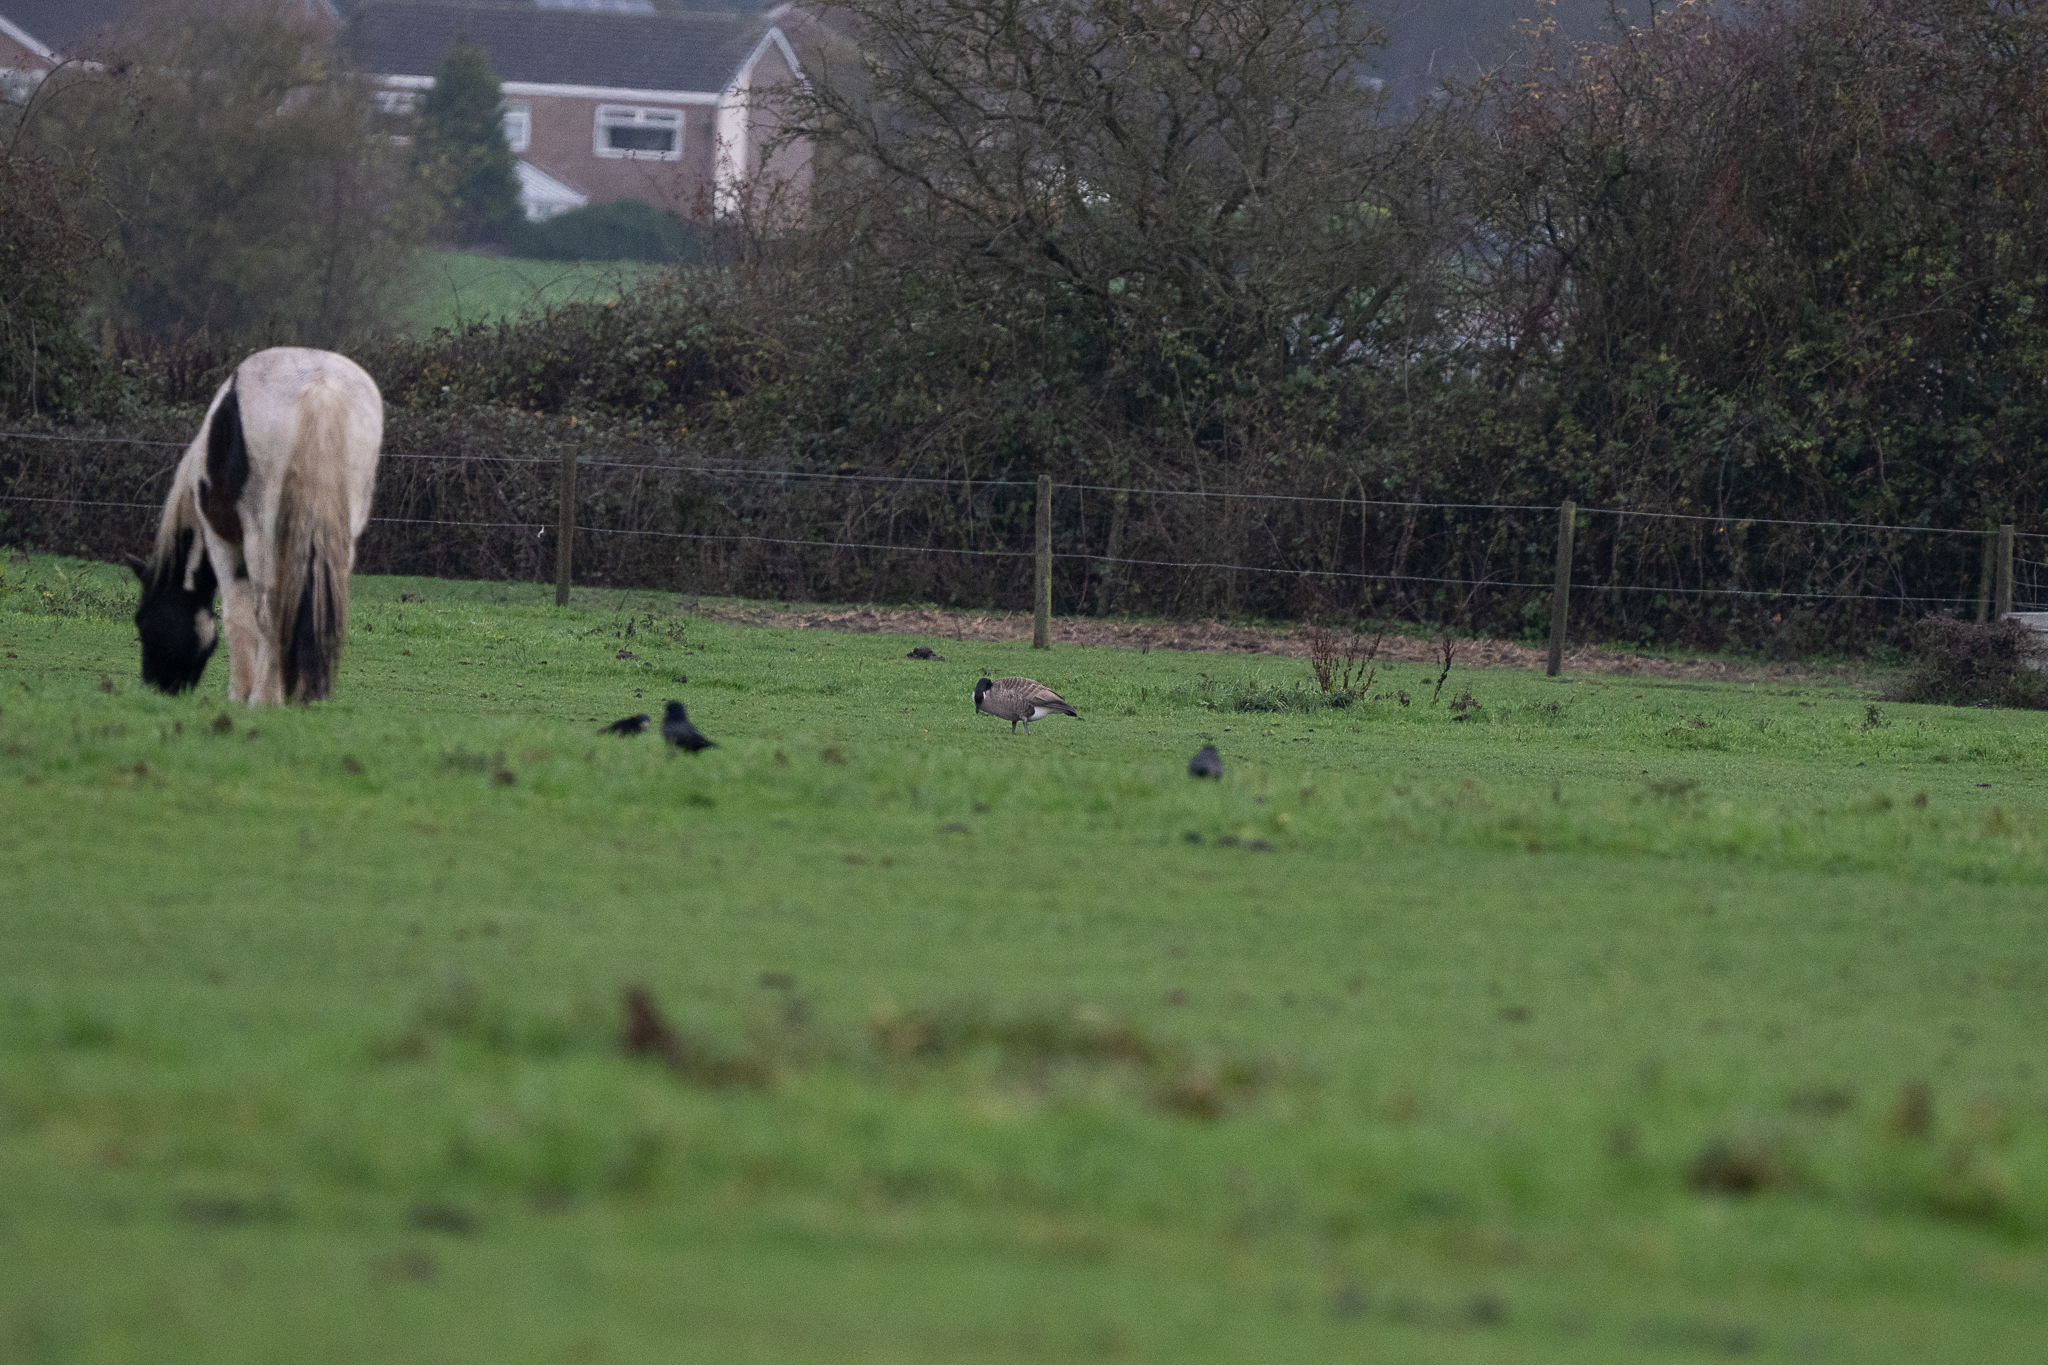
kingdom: Animalia
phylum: Chordata
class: Aves
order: Anseriformes
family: Anatidae
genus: Branta
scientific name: Branta canadensis
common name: Canada goose
